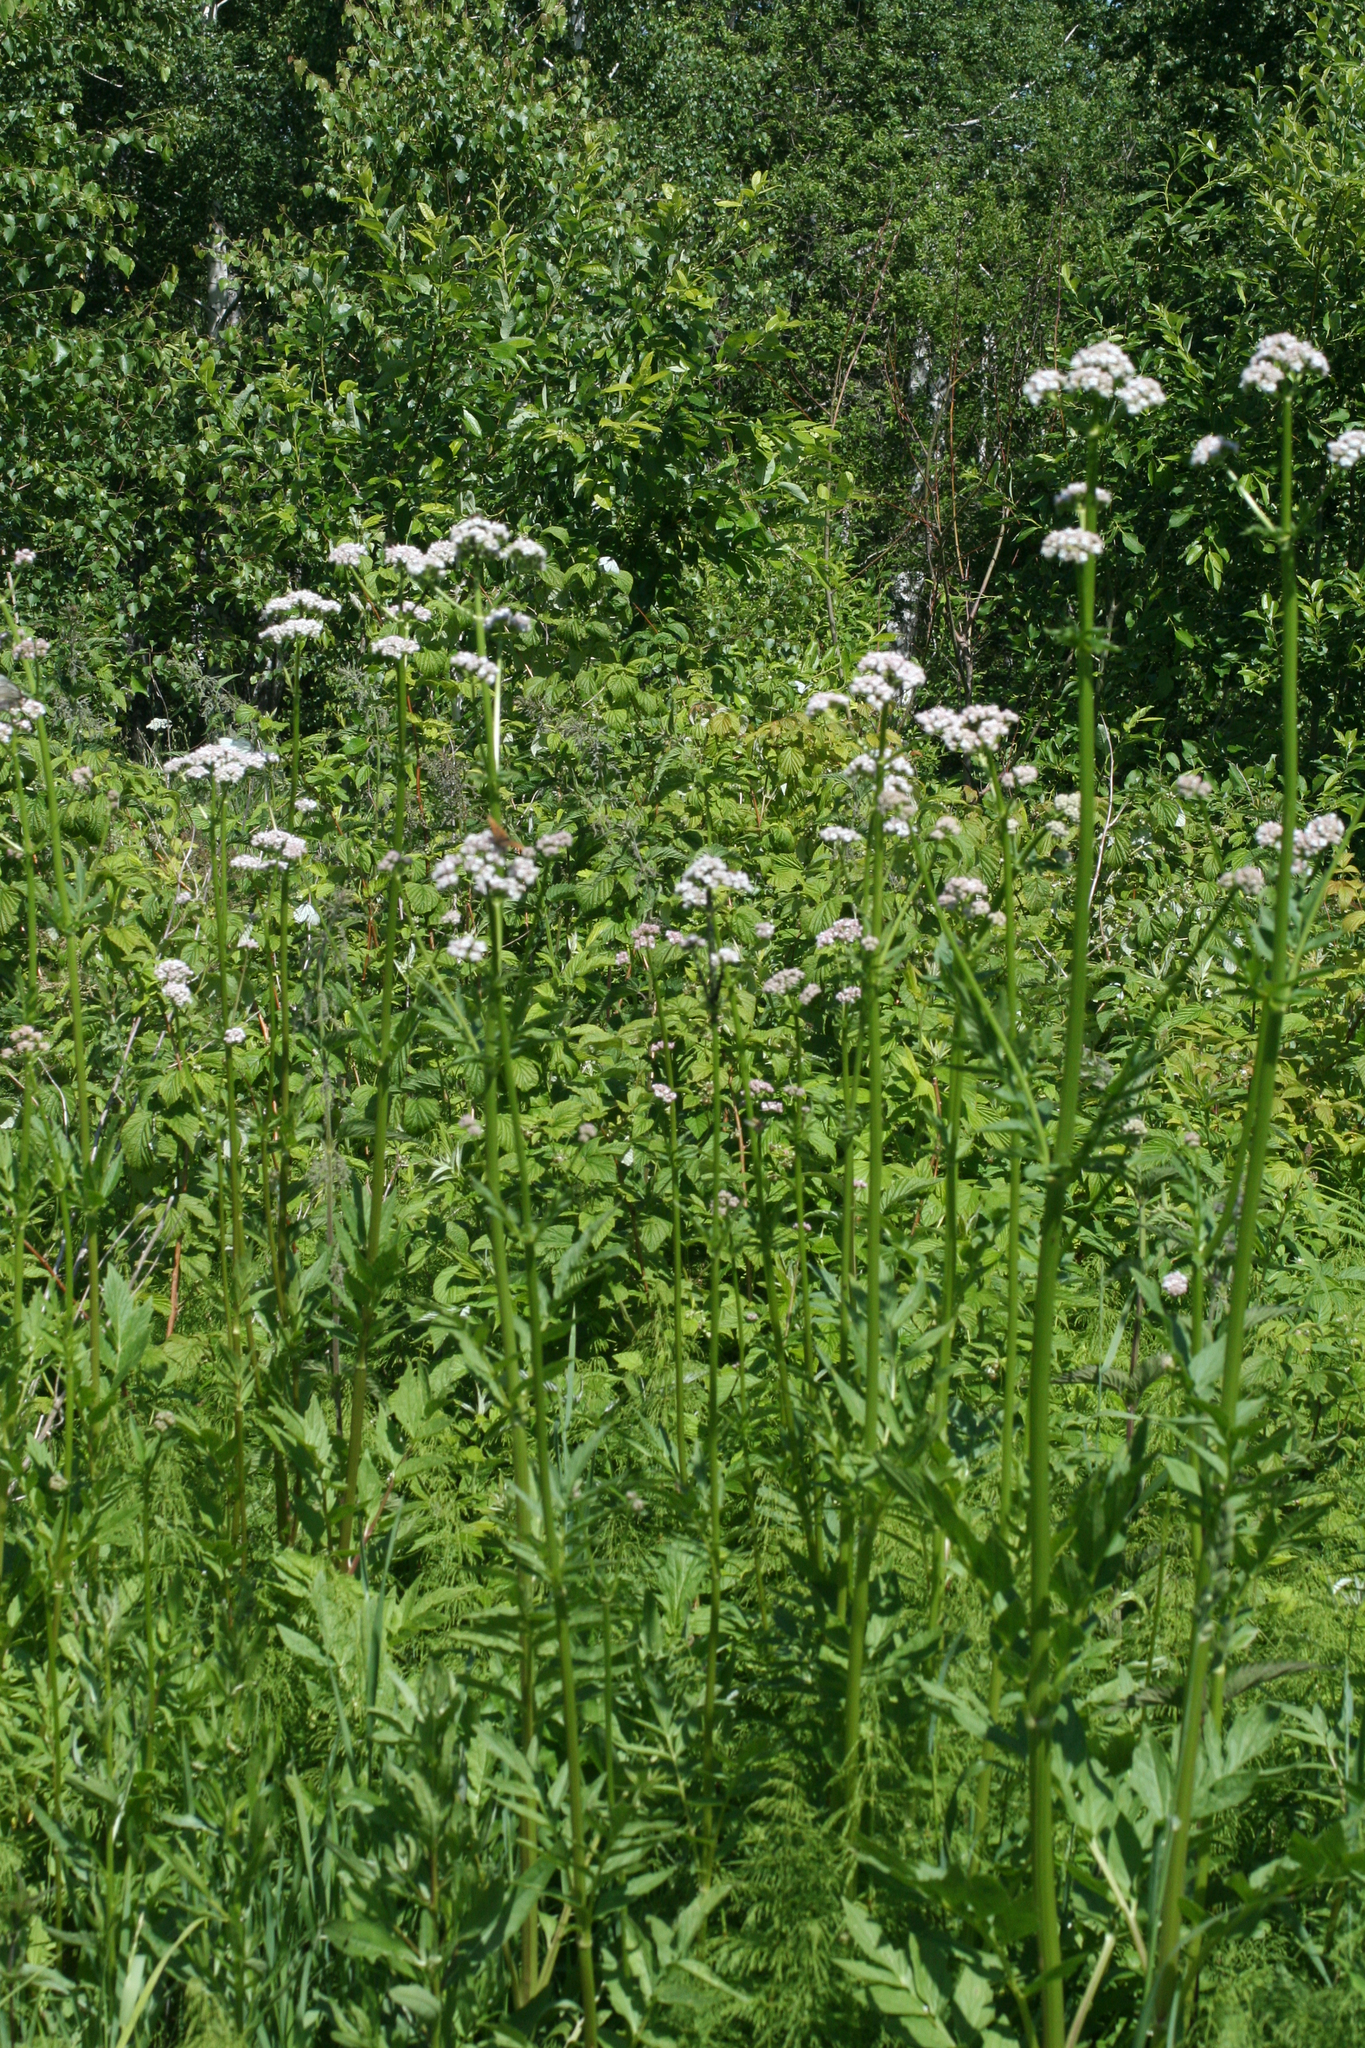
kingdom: Plantae
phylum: Tracheophyta
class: Magnoliopsida
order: Dipsacales
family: Caprifoliaceae
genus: Valeriana
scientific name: Valeriana officinalis
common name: Common valerian
